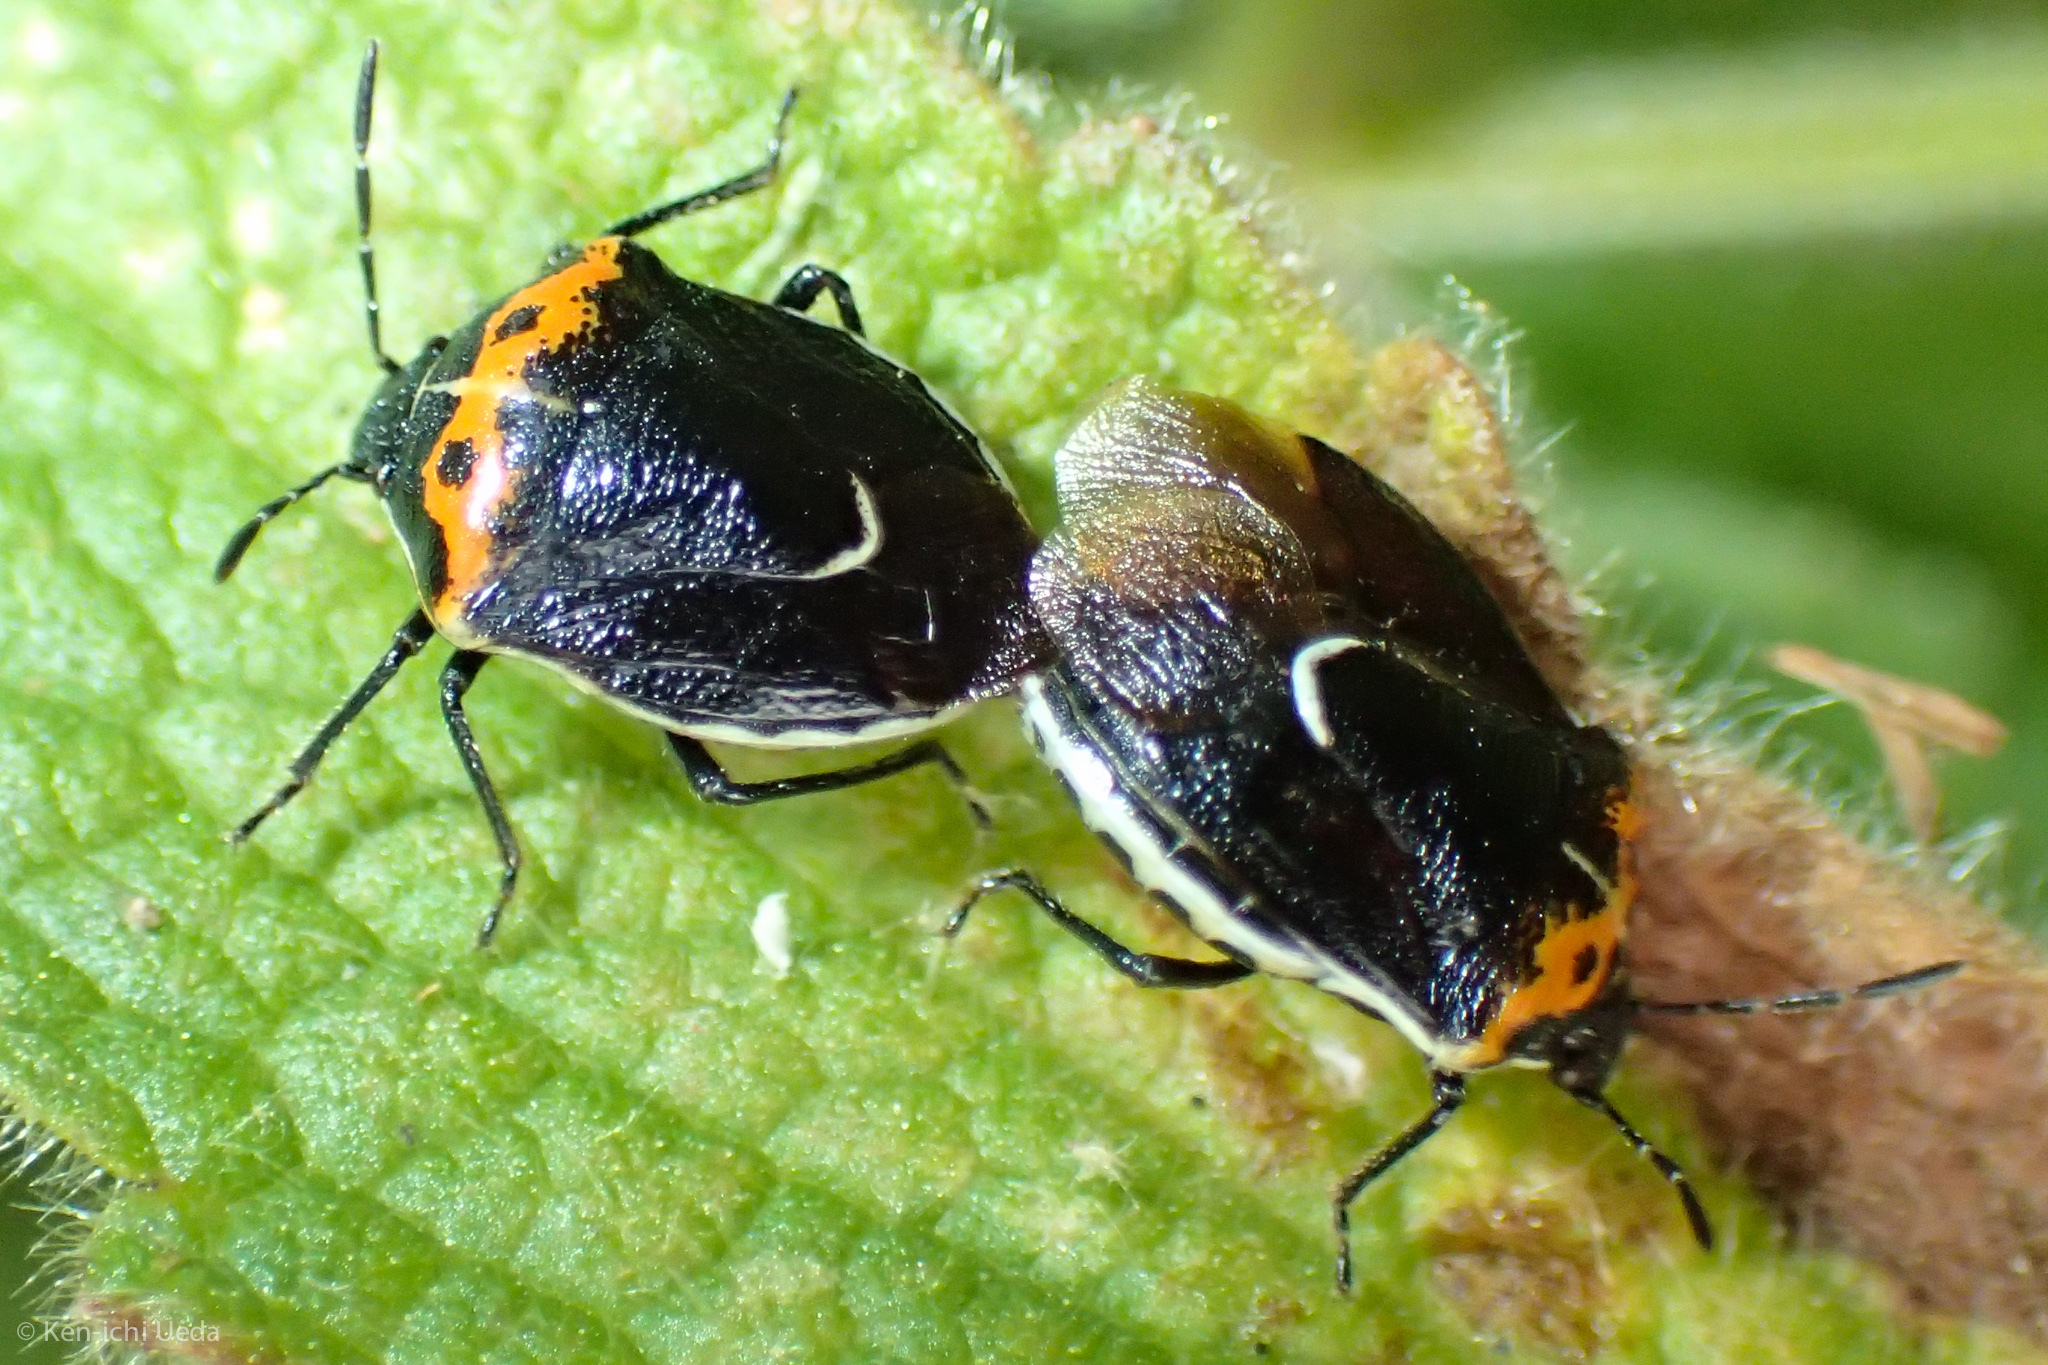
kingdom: Animalia
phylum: Arthropoda
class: Insecta
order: Hemiptera
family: Pentatomidae
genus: Cosmopepla
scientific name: Cosmopepla conspicillaris
